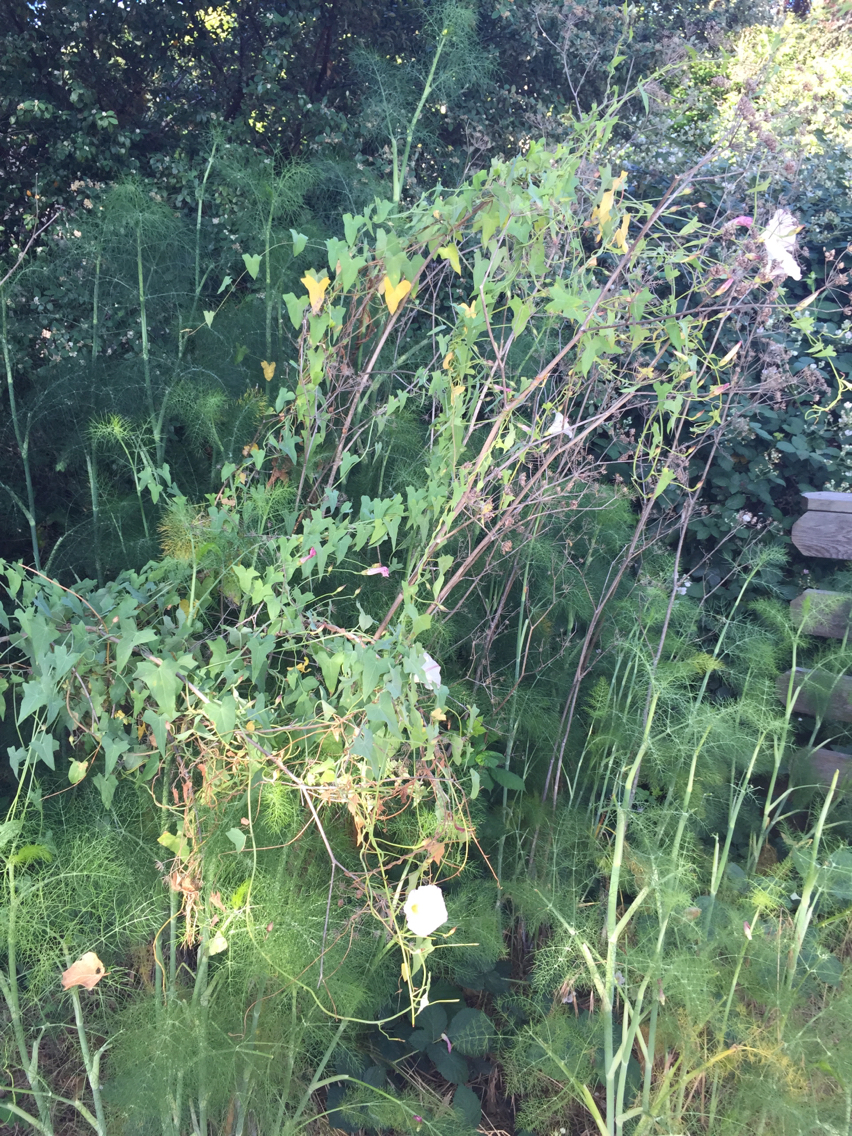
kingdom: Plantae
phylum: Tracheophyta
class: Magnoliopsida
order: Solanales
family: Convolvulaceae
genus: Calystegia
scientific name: Calystegia purpurata
